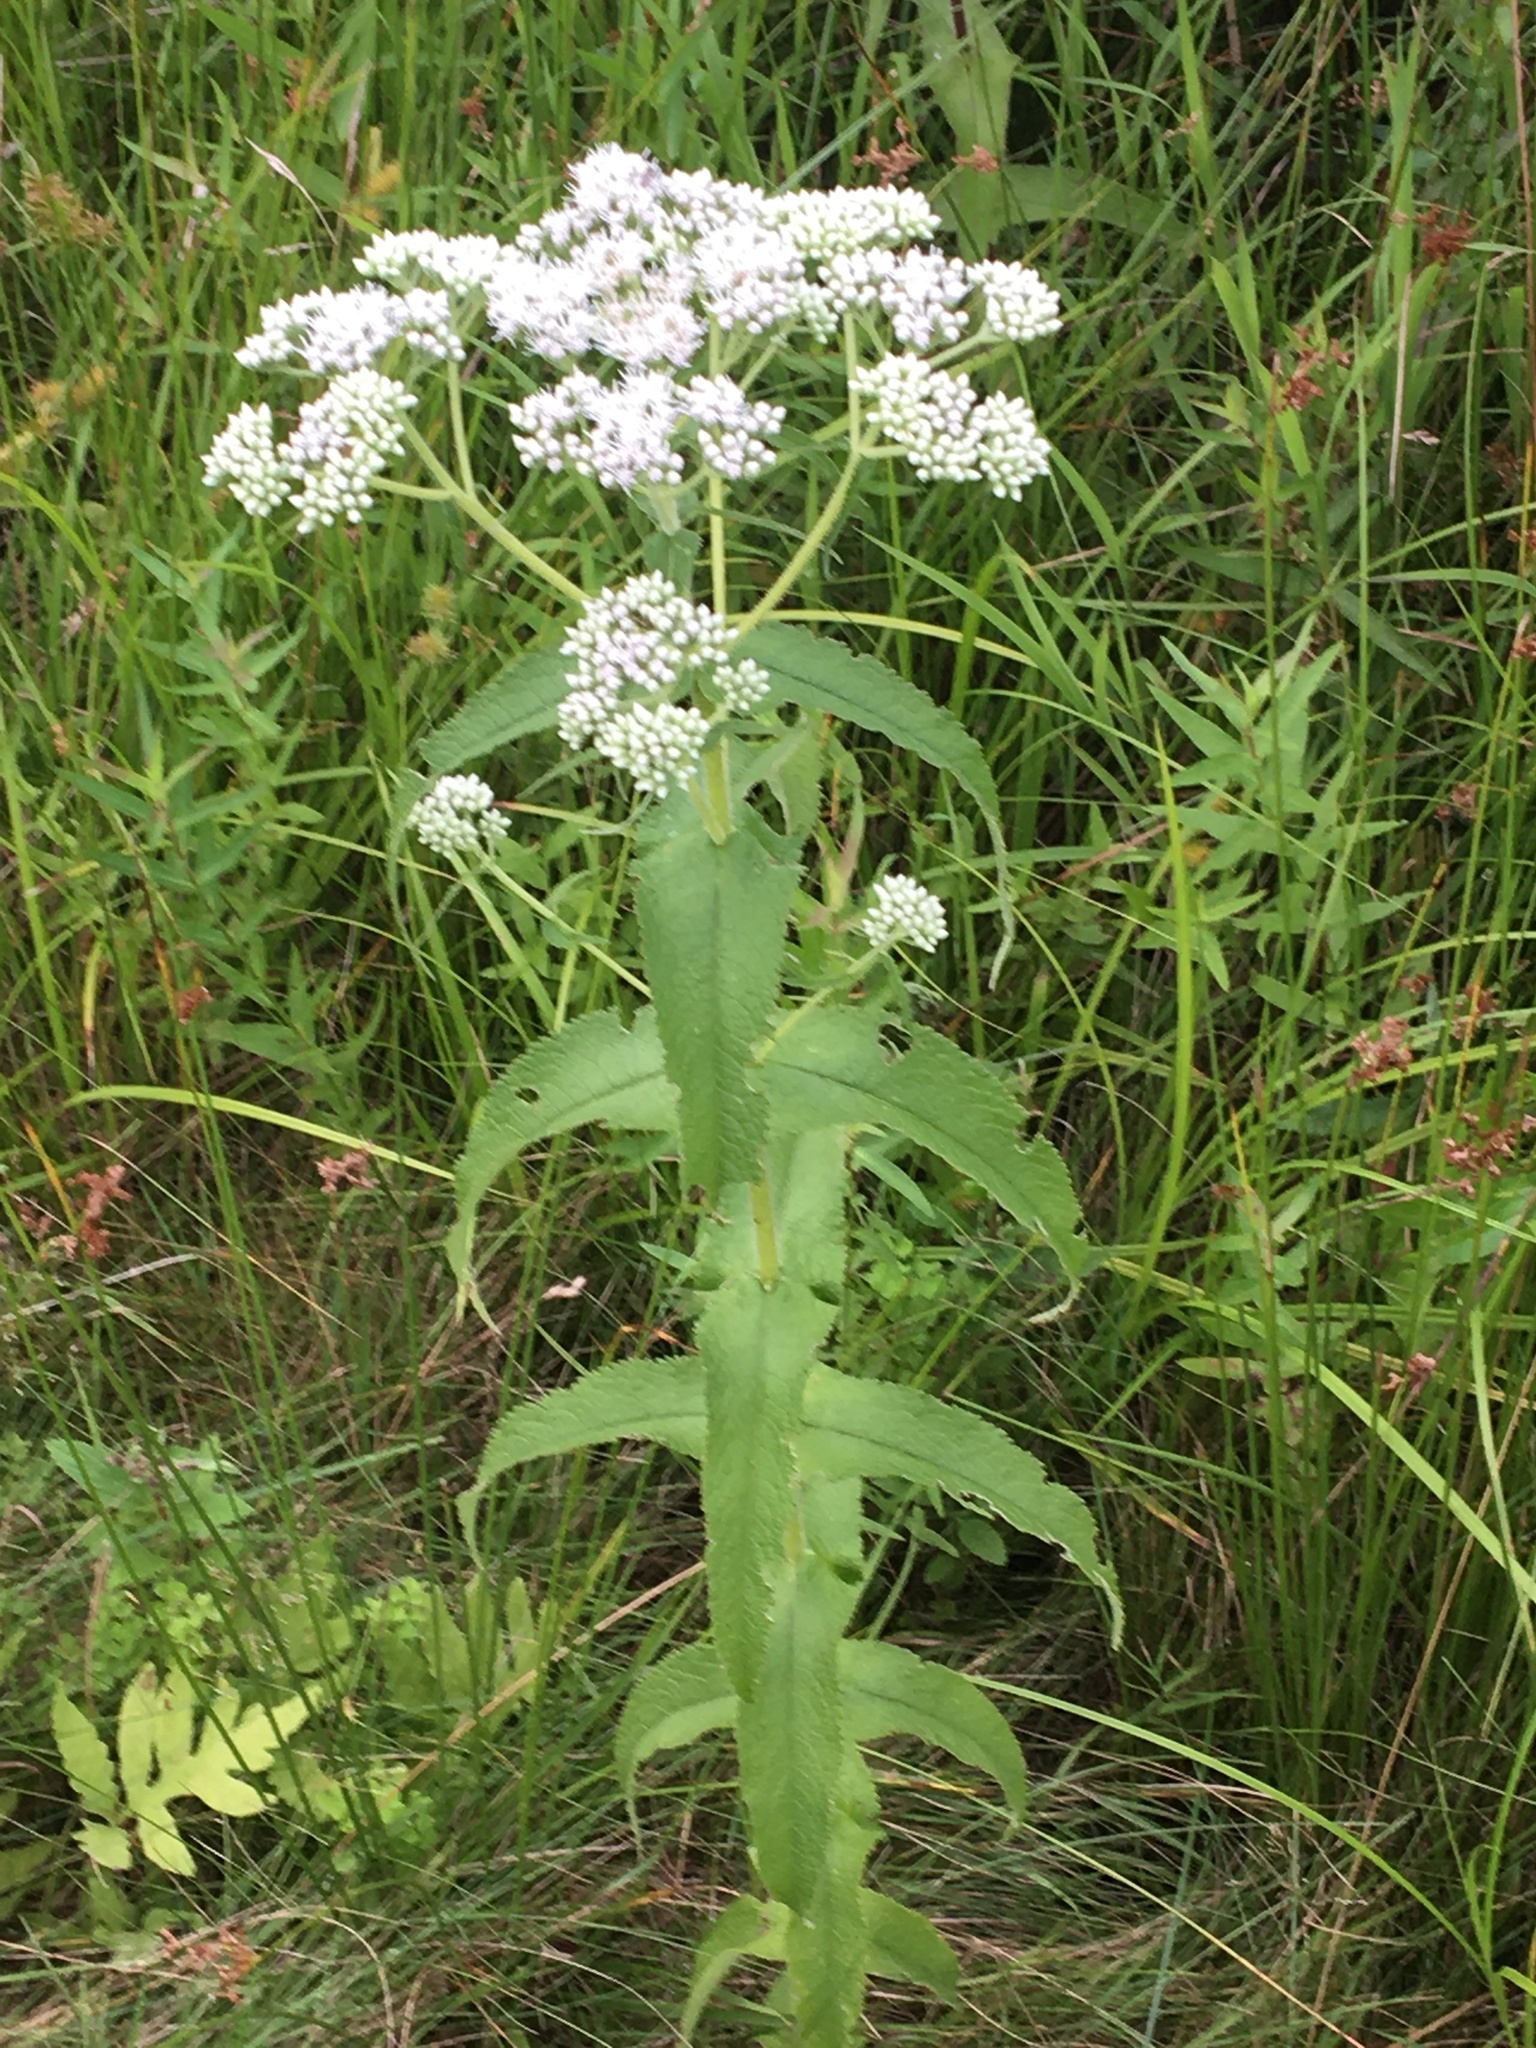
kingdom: Plantae
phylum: Tracheophyta
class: Magnoliopsida
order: Asterales
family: Asteraceae
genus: Eupatorium
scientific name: Eupatorium perfoliatum
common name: Boneset
